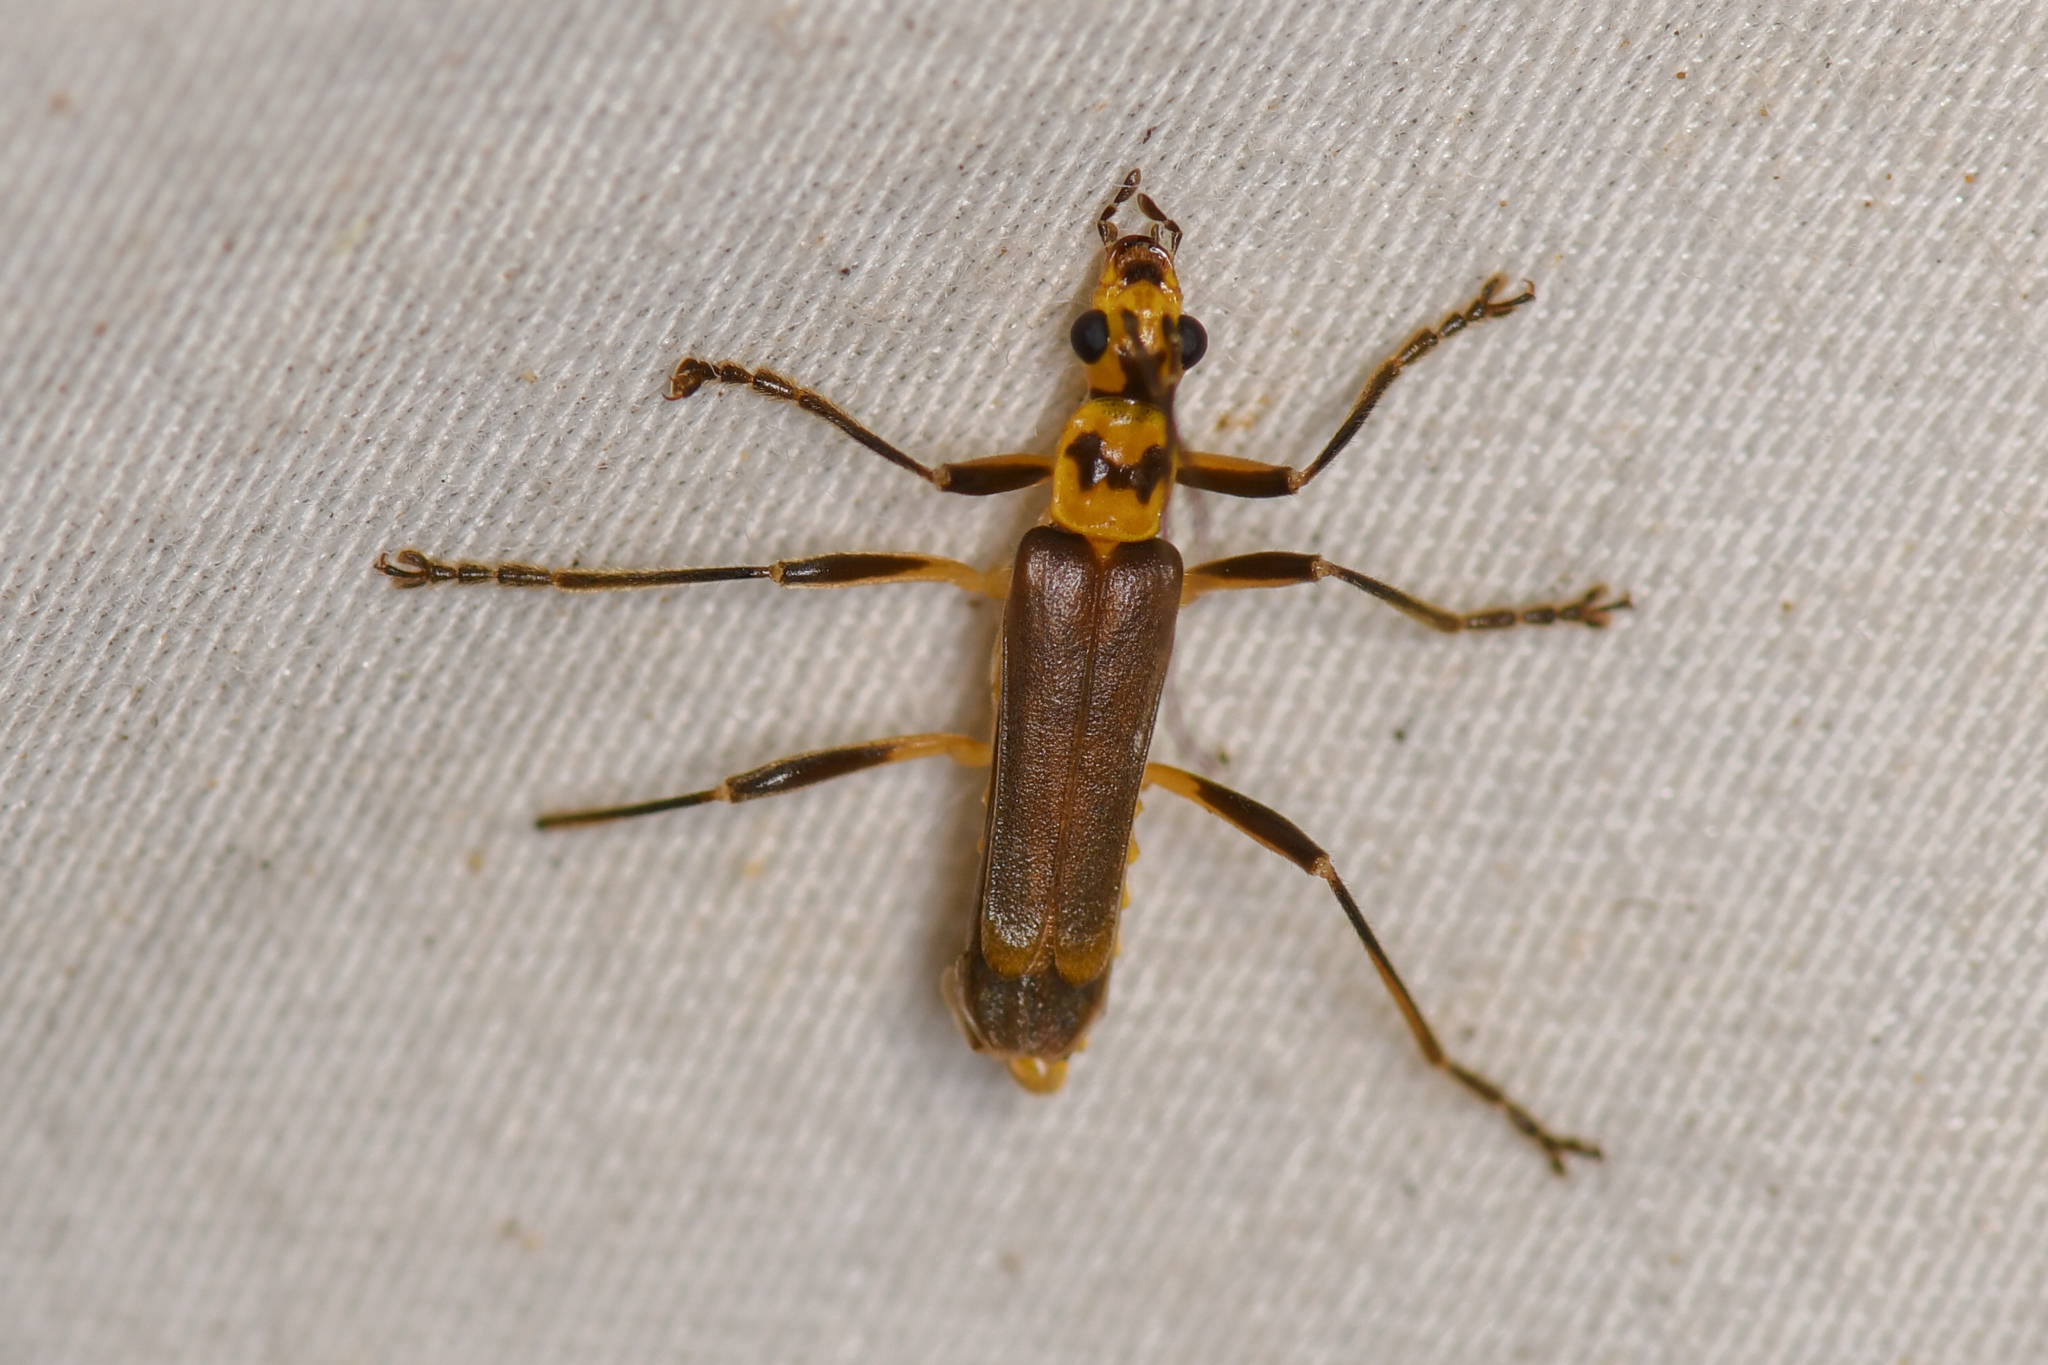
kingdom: Animalia
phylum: Arthropoda
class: Insecta
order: Coleoptera
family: Cantharidae
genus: Chauliognathus
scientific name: Chauliognathus
